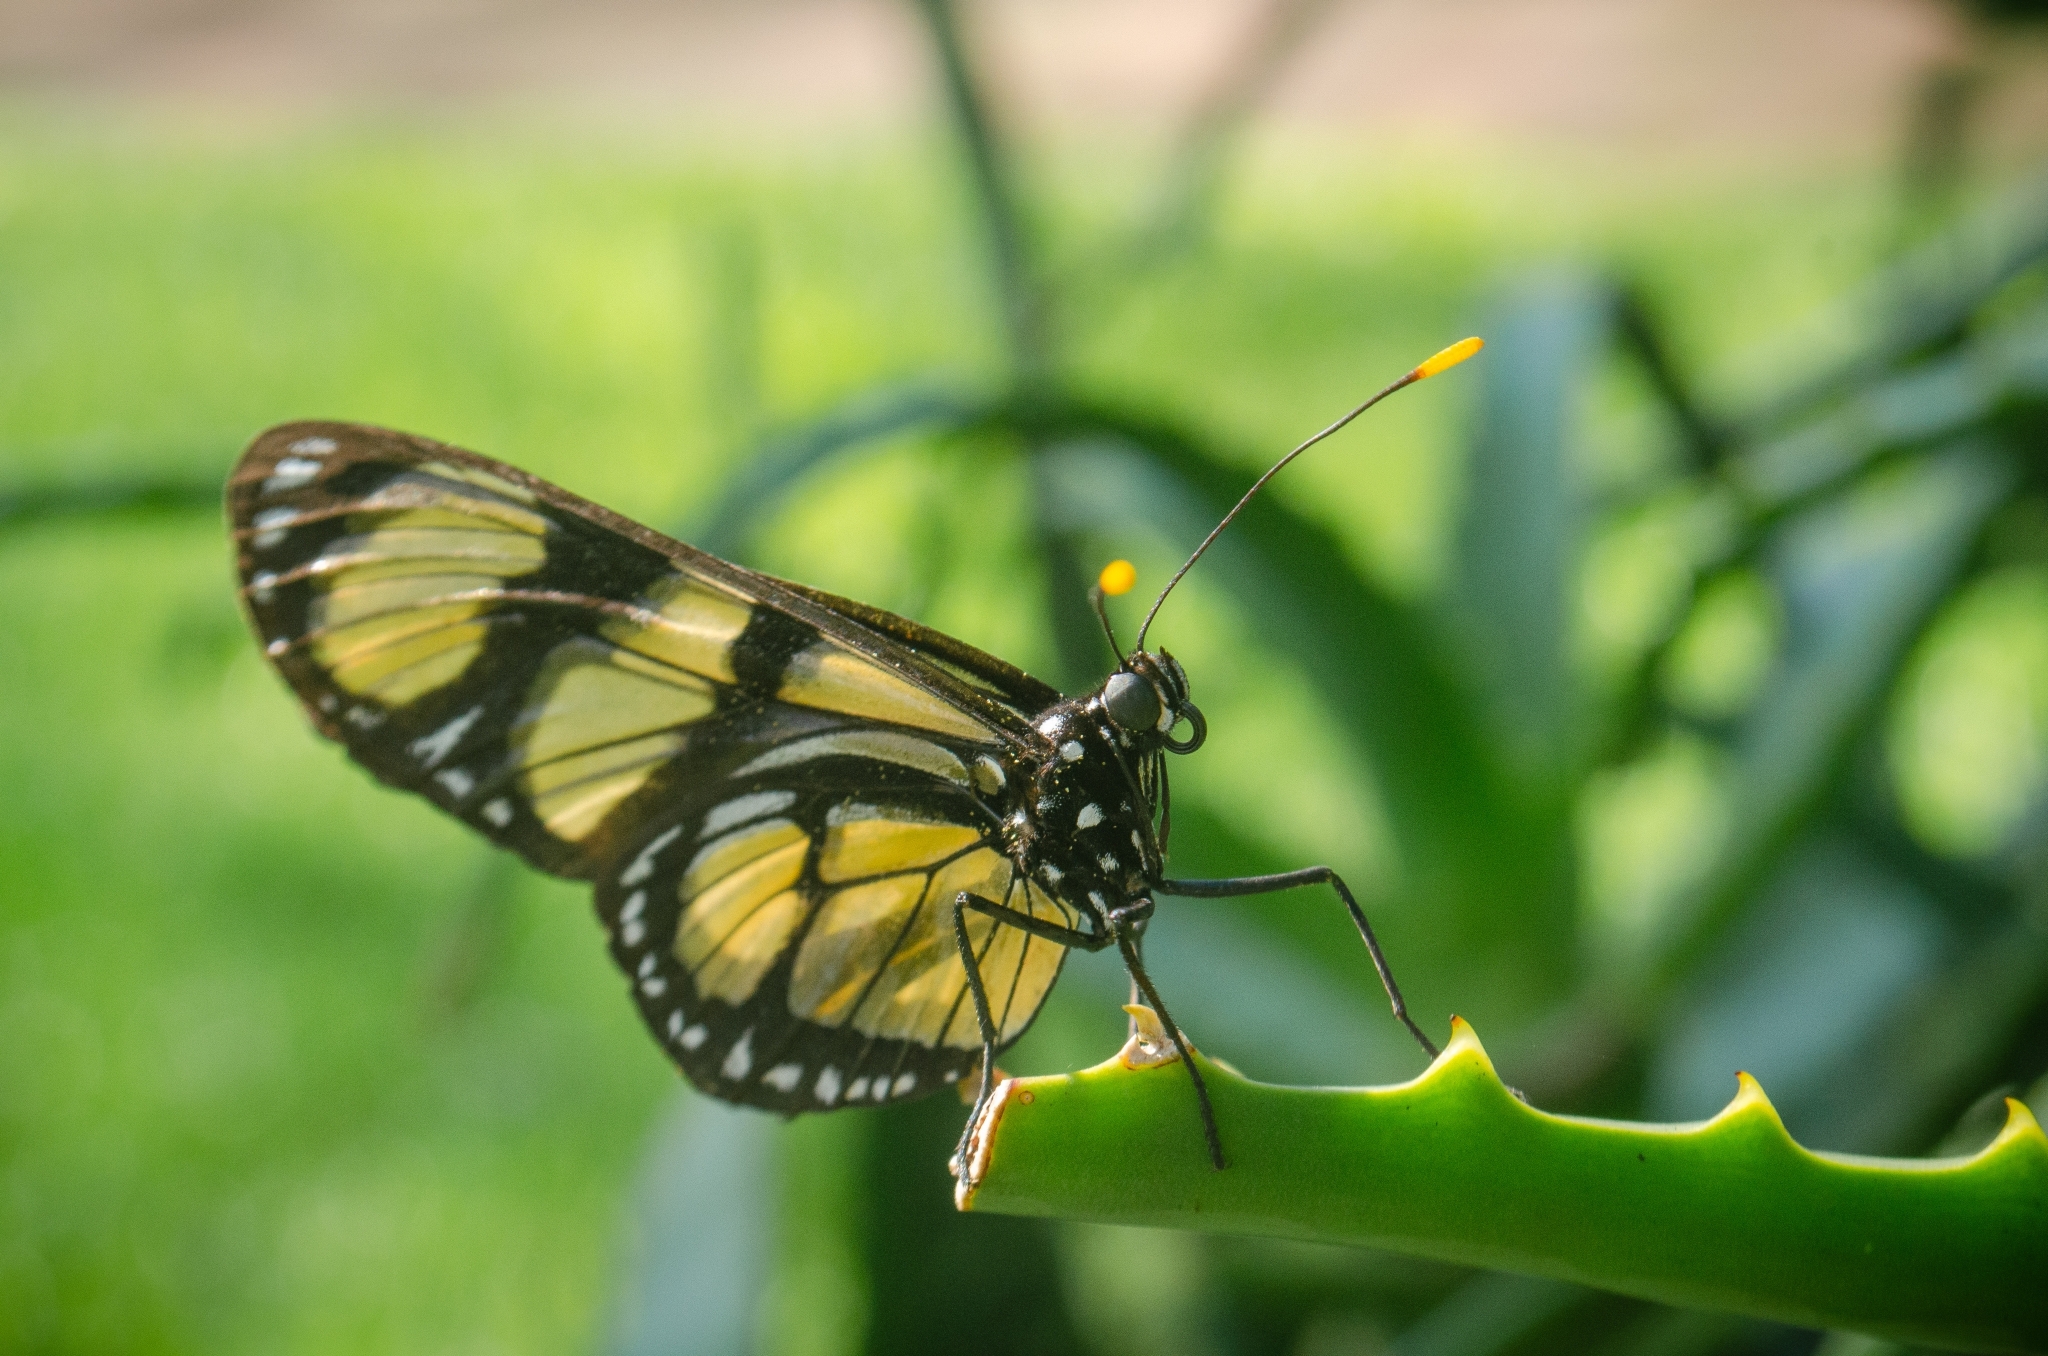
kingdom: Animalia
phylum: Arthropoda
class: Insecta
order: Lepidoptera
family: Nymphalidae
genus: Methona
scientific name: Methona themisto
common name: Themisto amberwing
